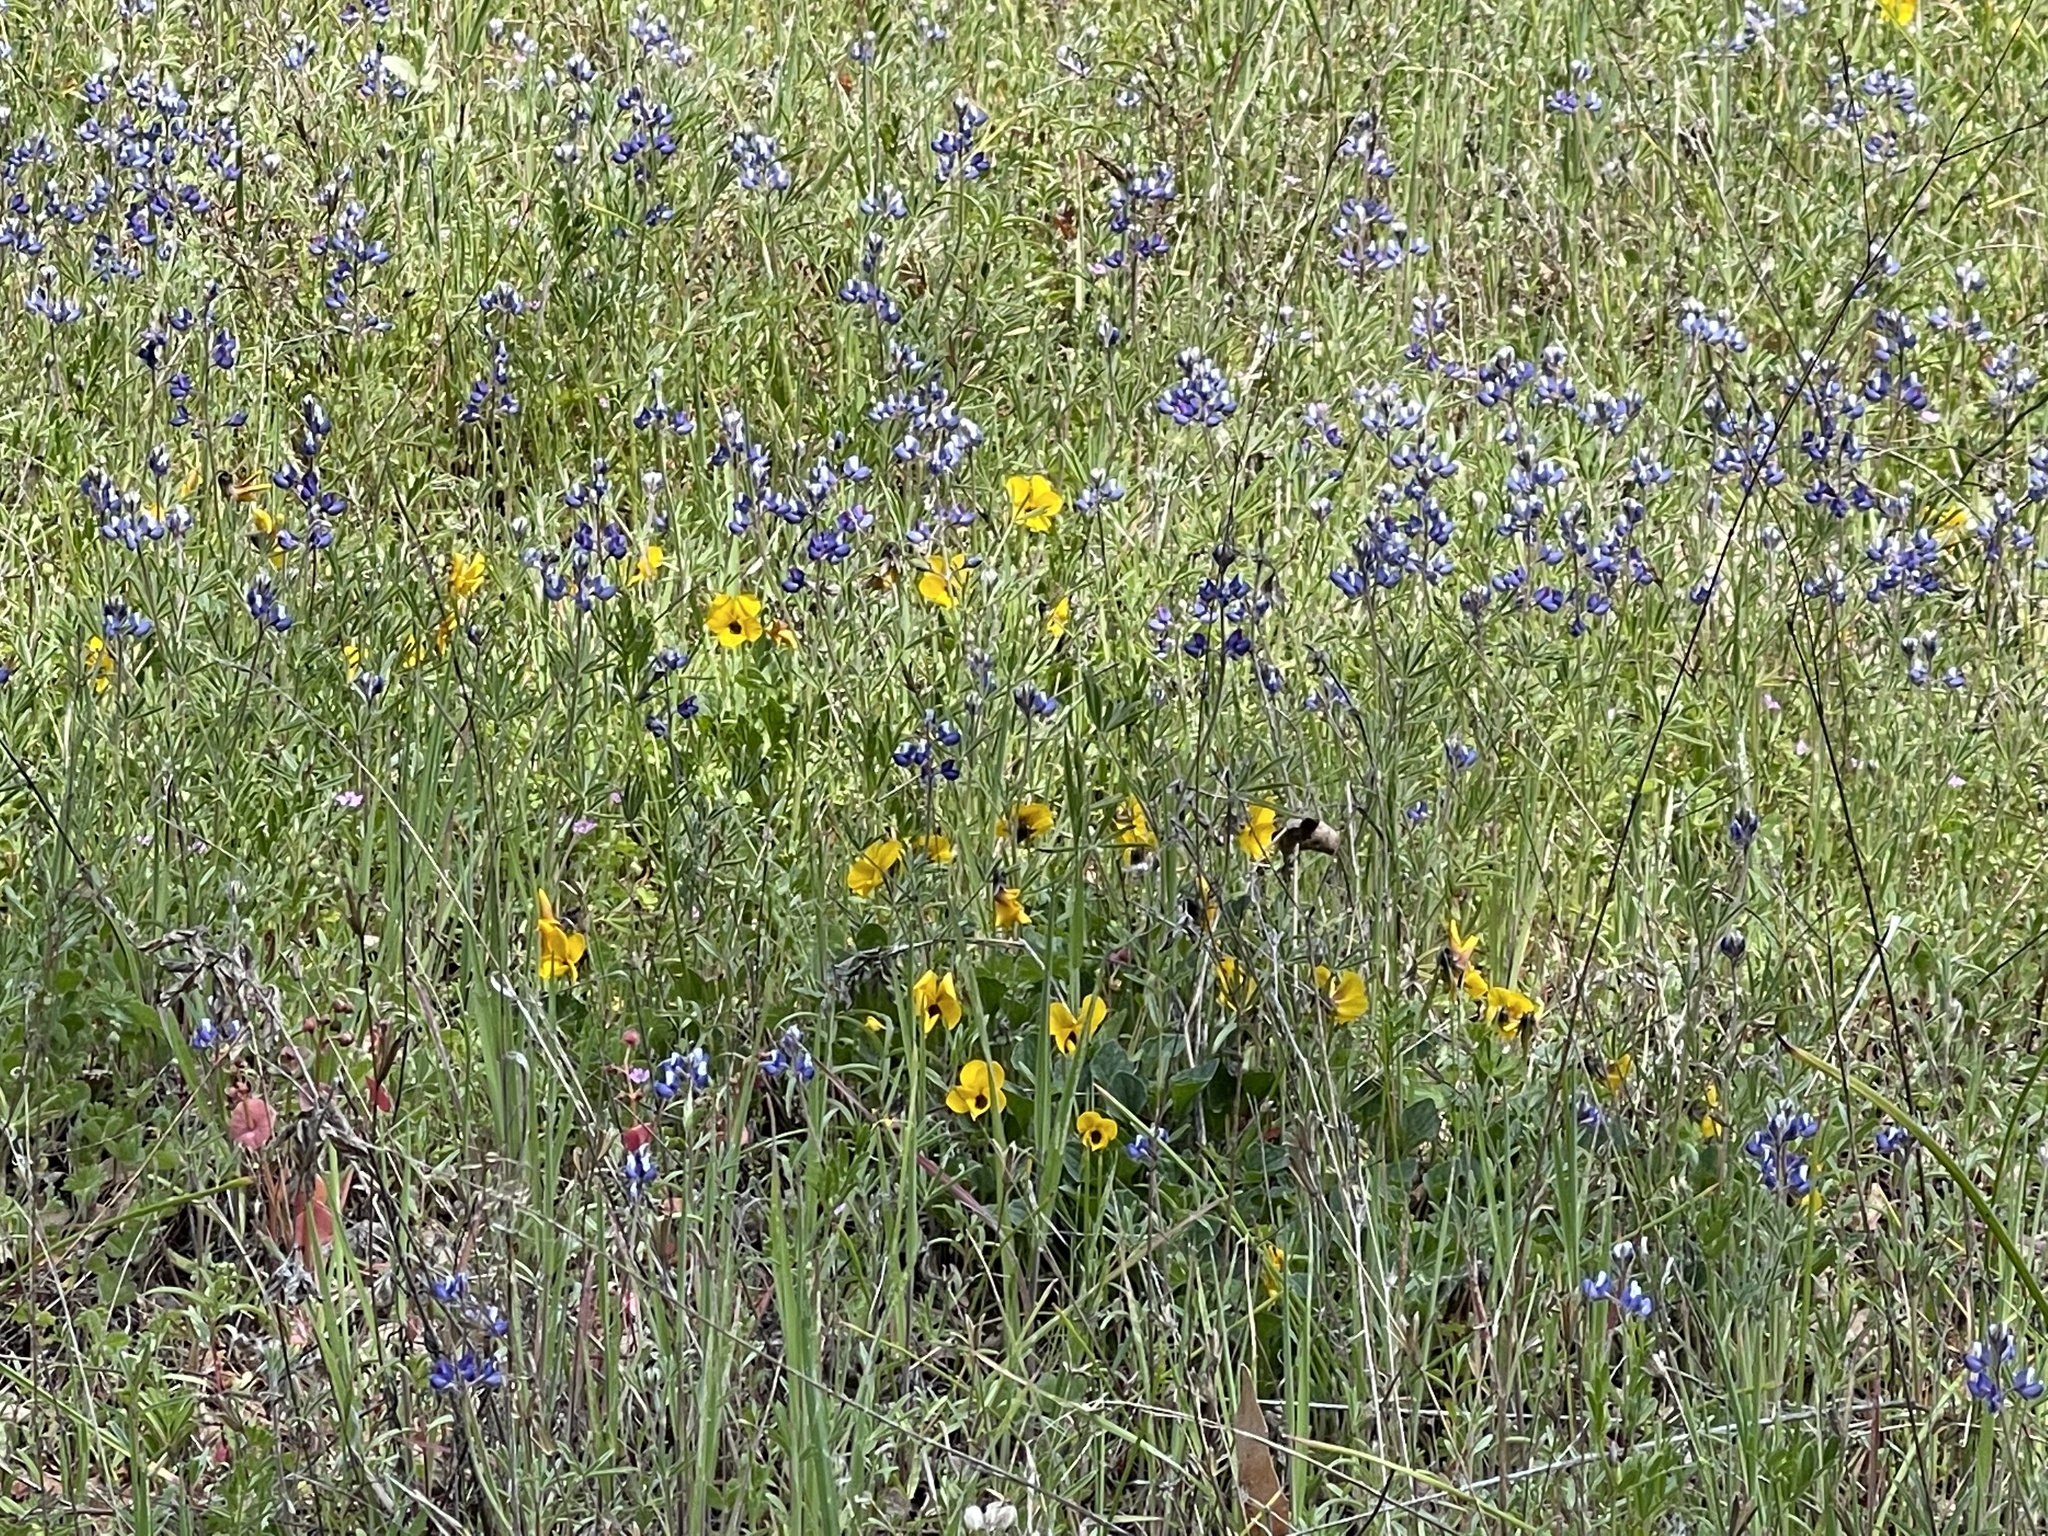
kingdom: Plantae
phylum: Tracheophyta
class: Magnoliopsida
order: Malpighiales
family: Violaceae
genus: Viola
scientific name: Viola pedunculata
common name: California golden violet
